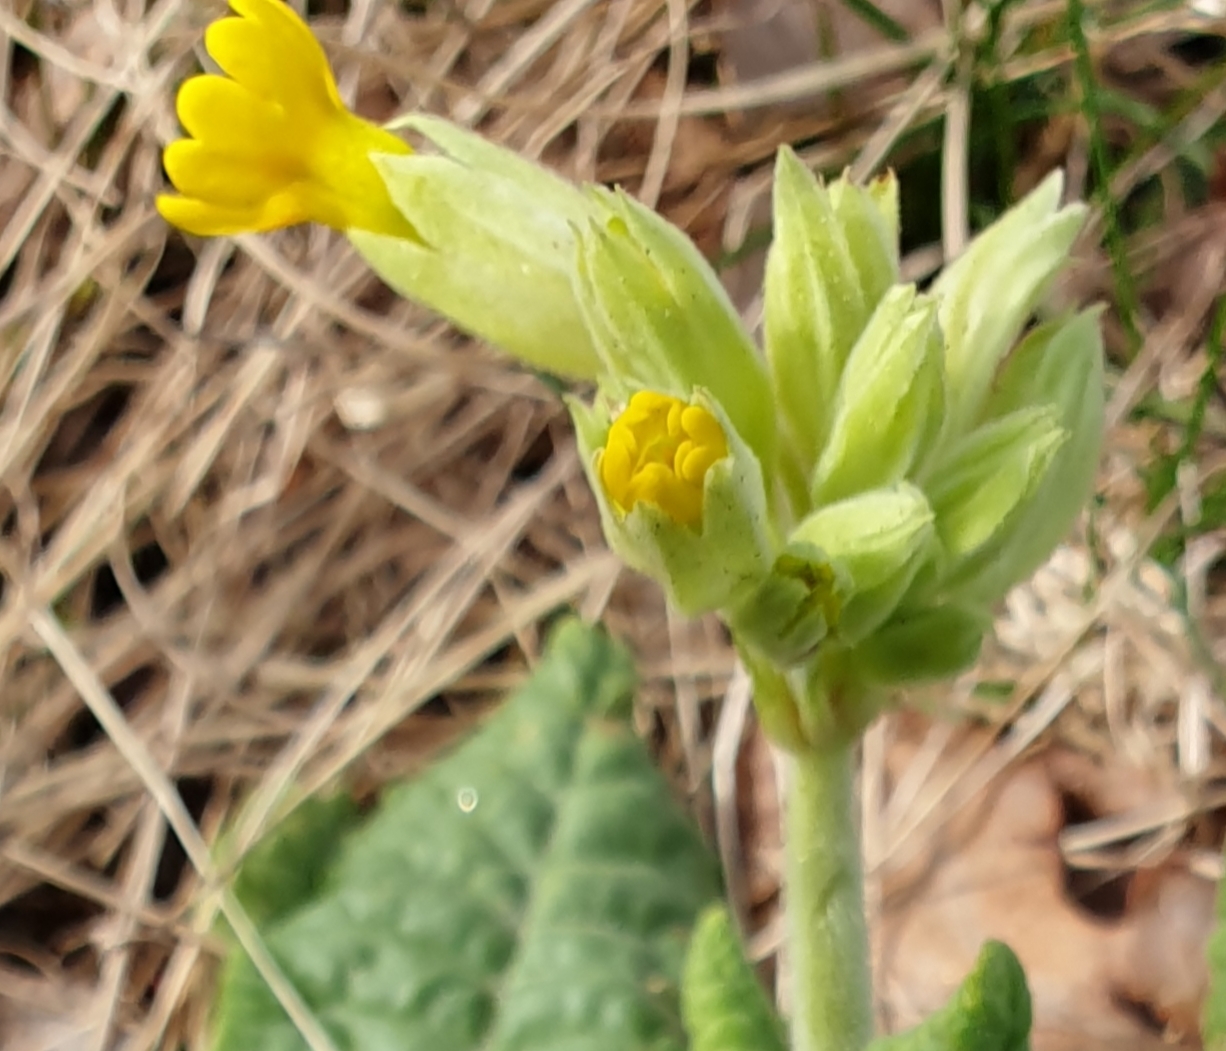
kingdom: Plantae
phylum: Tracheophyta
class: Magnoliopsida
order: Ericales
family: Primulaceae
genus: Primula
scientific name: Primula veris
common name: Cowslip
